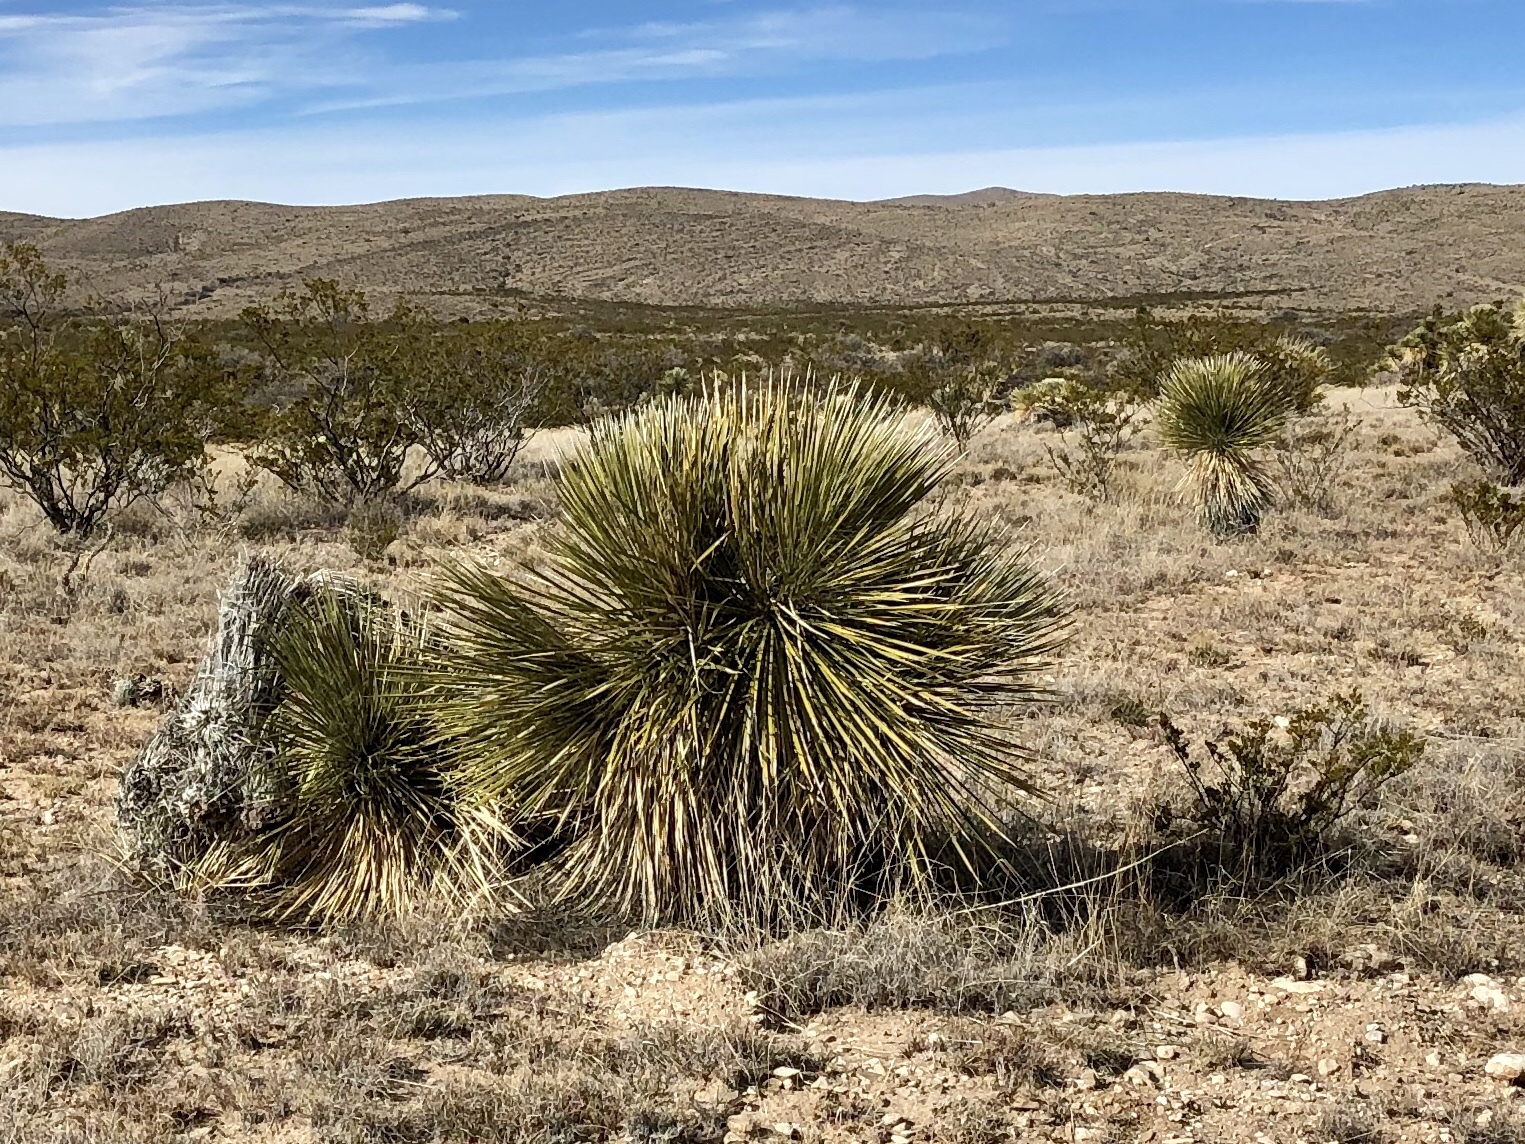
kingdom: Plantae
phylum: Tracheophyta
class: Liliopsida
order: Asparagales
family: Asparagaceae
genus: Yucca
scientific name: Yucca elata
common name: Palmella
